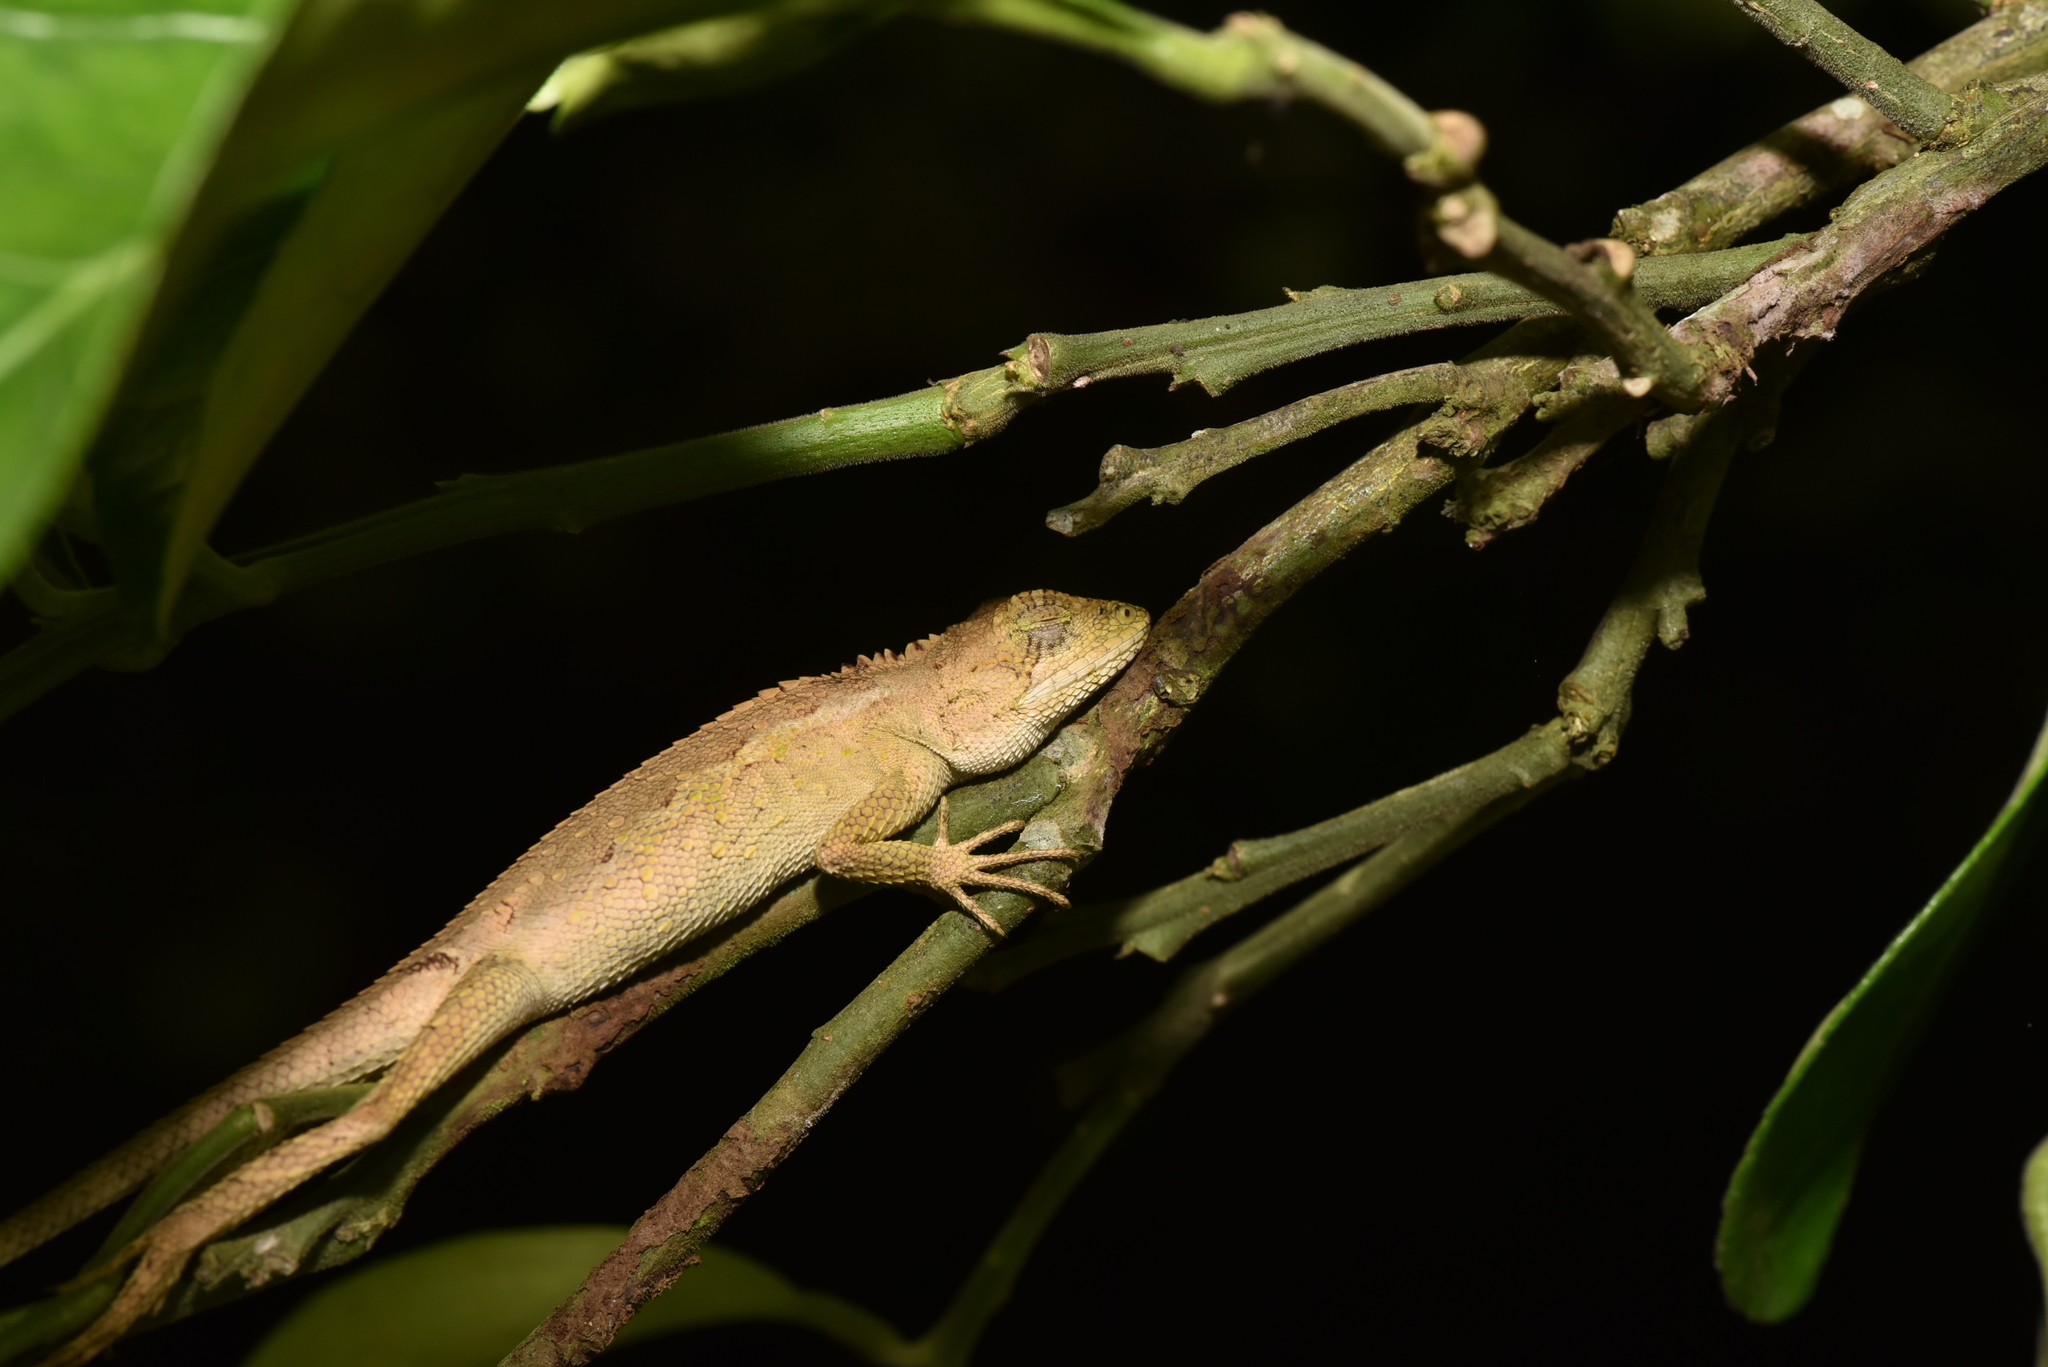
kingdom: Animalia
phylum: Chordata
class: Squamata
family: Agamidae
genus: Diploderma
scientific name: Diploderma swinhonis
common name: Taiwan japalure
